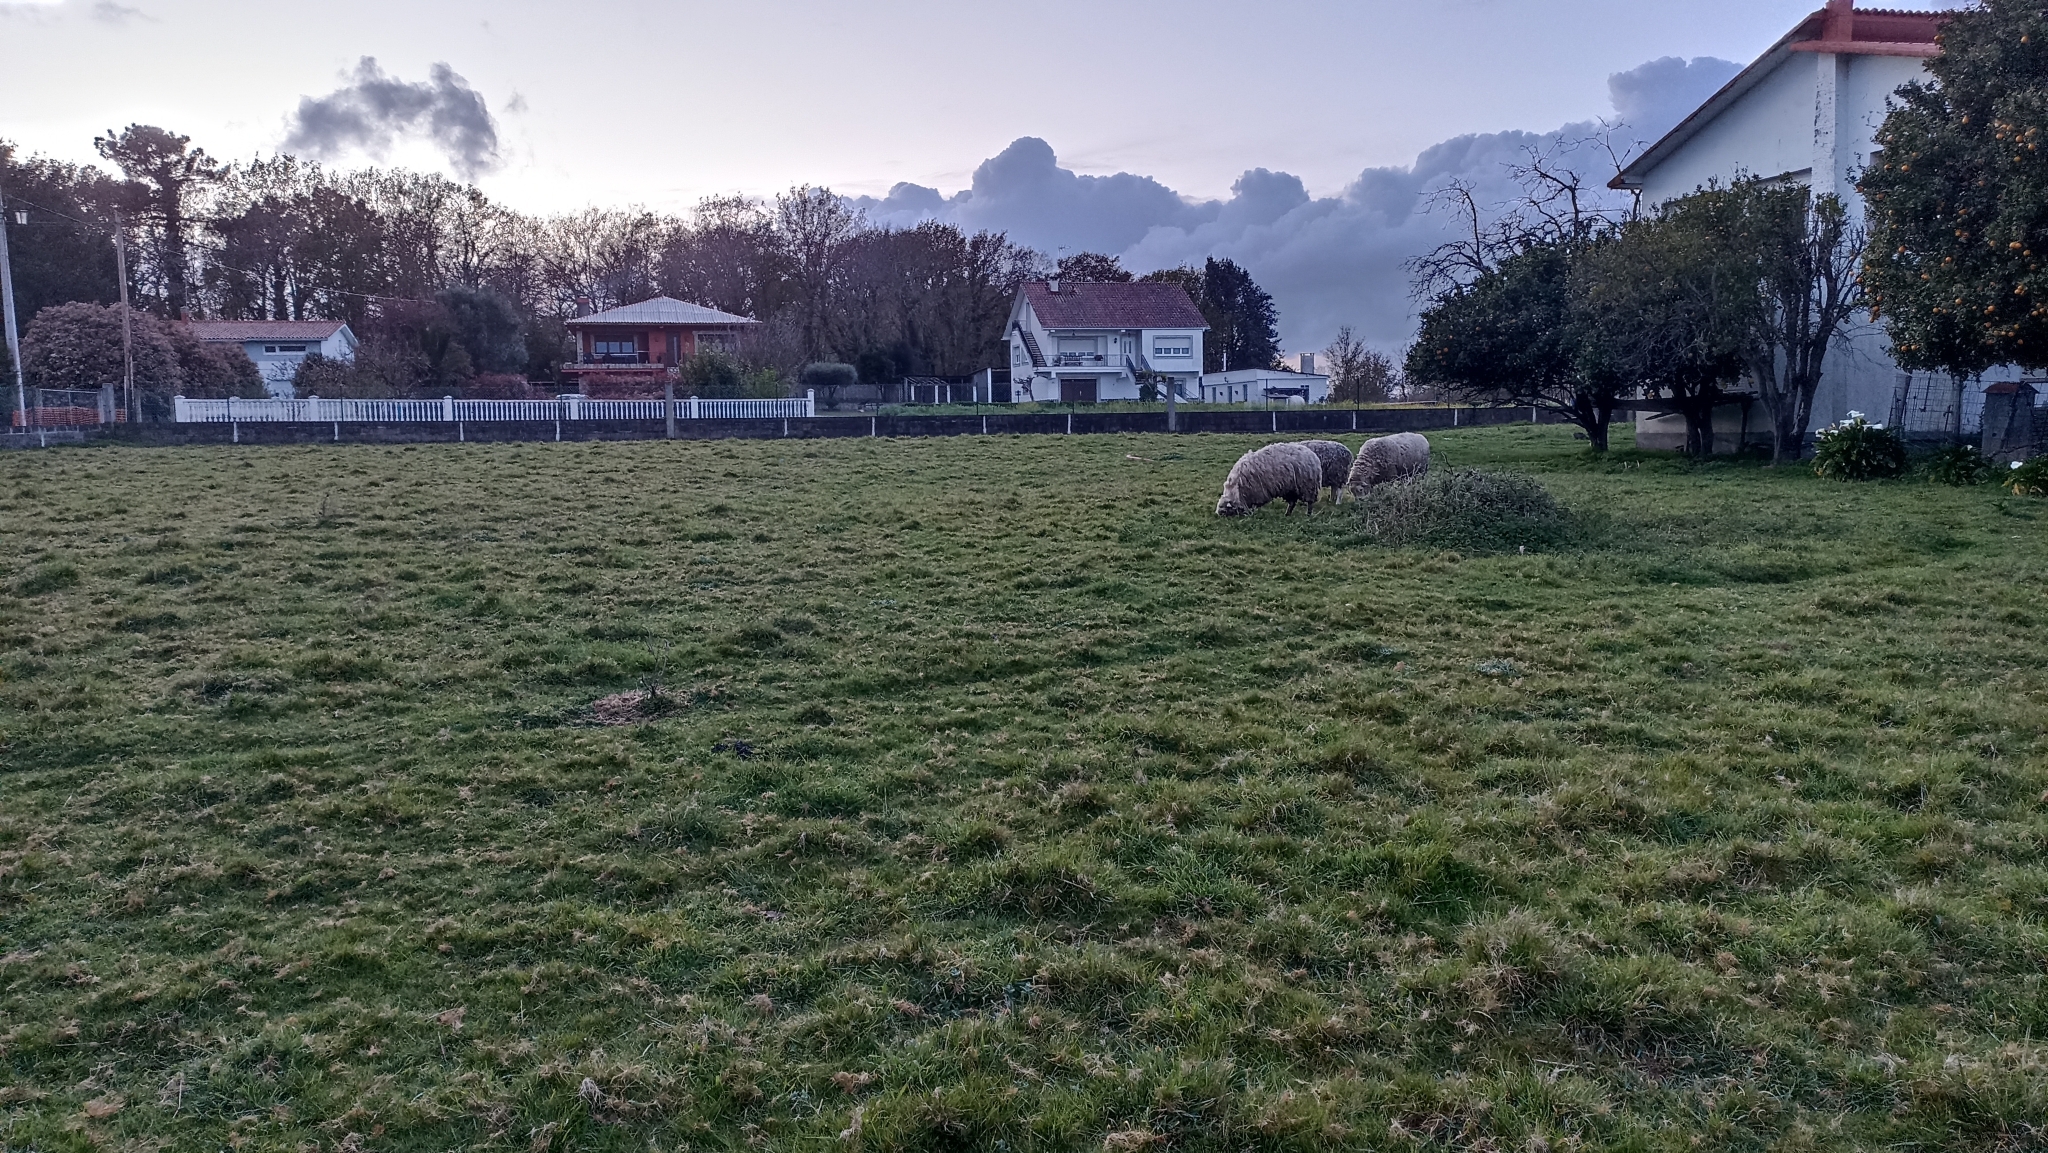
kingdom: Animalia
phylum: Chordata
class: Mammalia
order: Artiodactyla
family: Bovidae
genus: Ovis
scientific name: Ovis aries
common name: Domestic sheep
